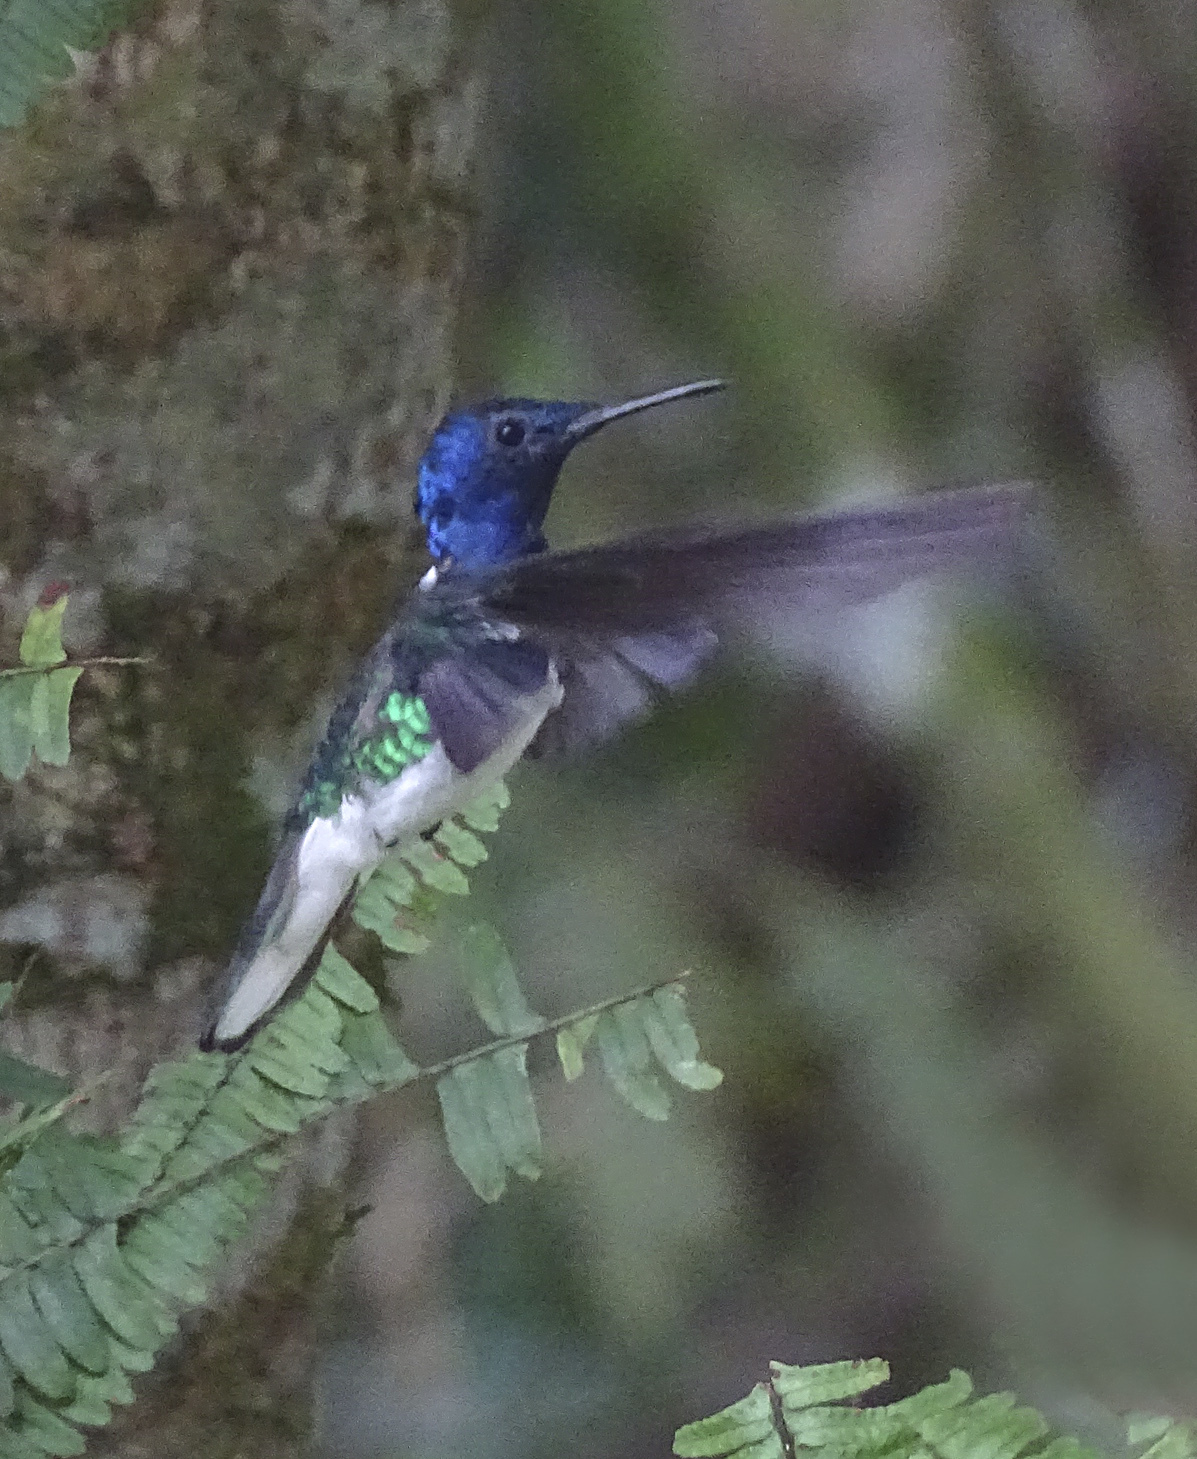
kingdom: Animalia
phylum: Chordata
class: Aves
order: Apodiformes
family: Trochilidae
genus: Florisuga
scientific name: Florisuga mellivora
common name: White-necked jacobin
